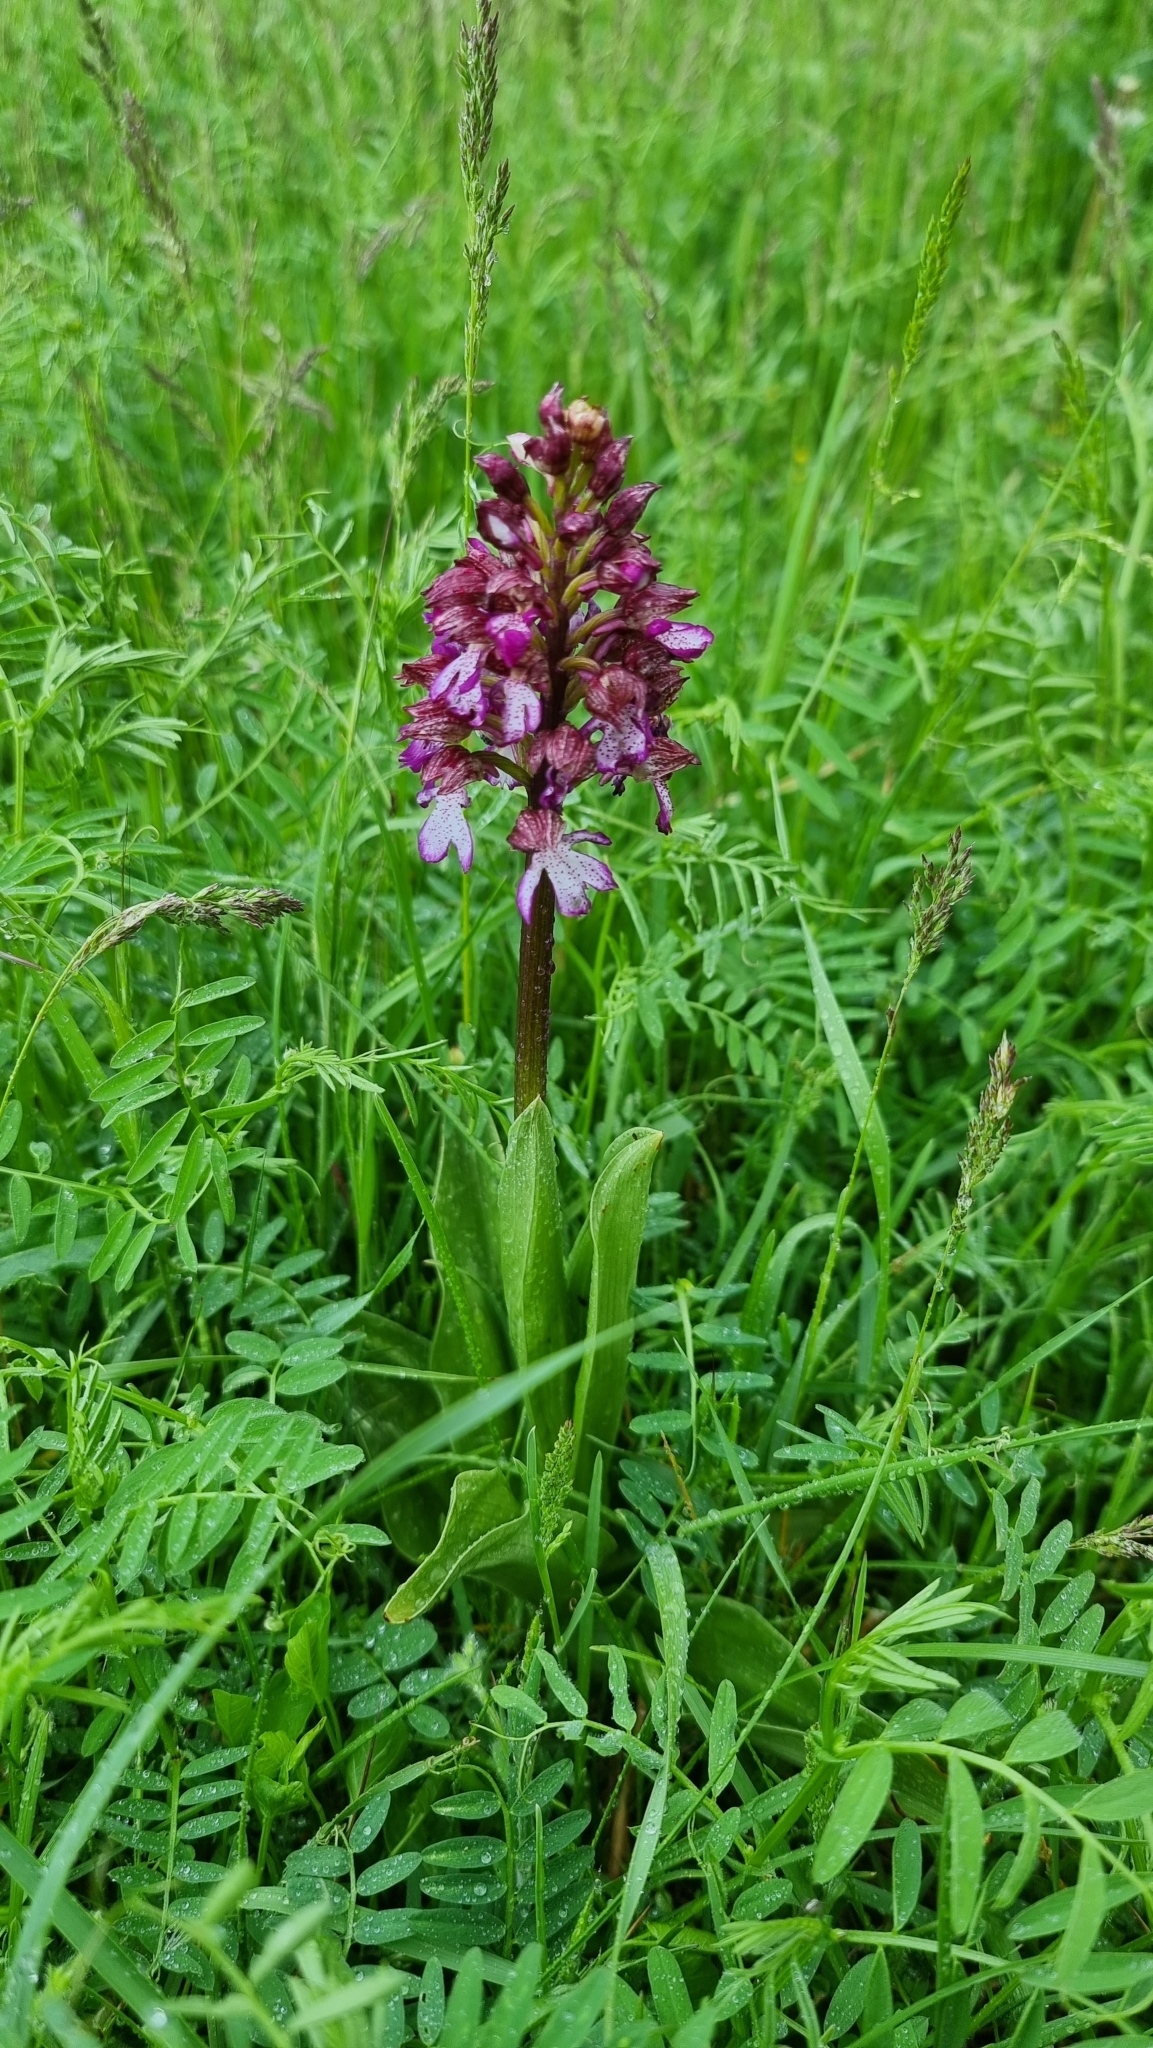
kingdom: Plantae
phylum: Tracheophyta
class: Liliopsida
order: Asparagales
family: Orchidaceae
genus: Orchis
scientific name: Orchis purpurea
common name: Lady orchid
